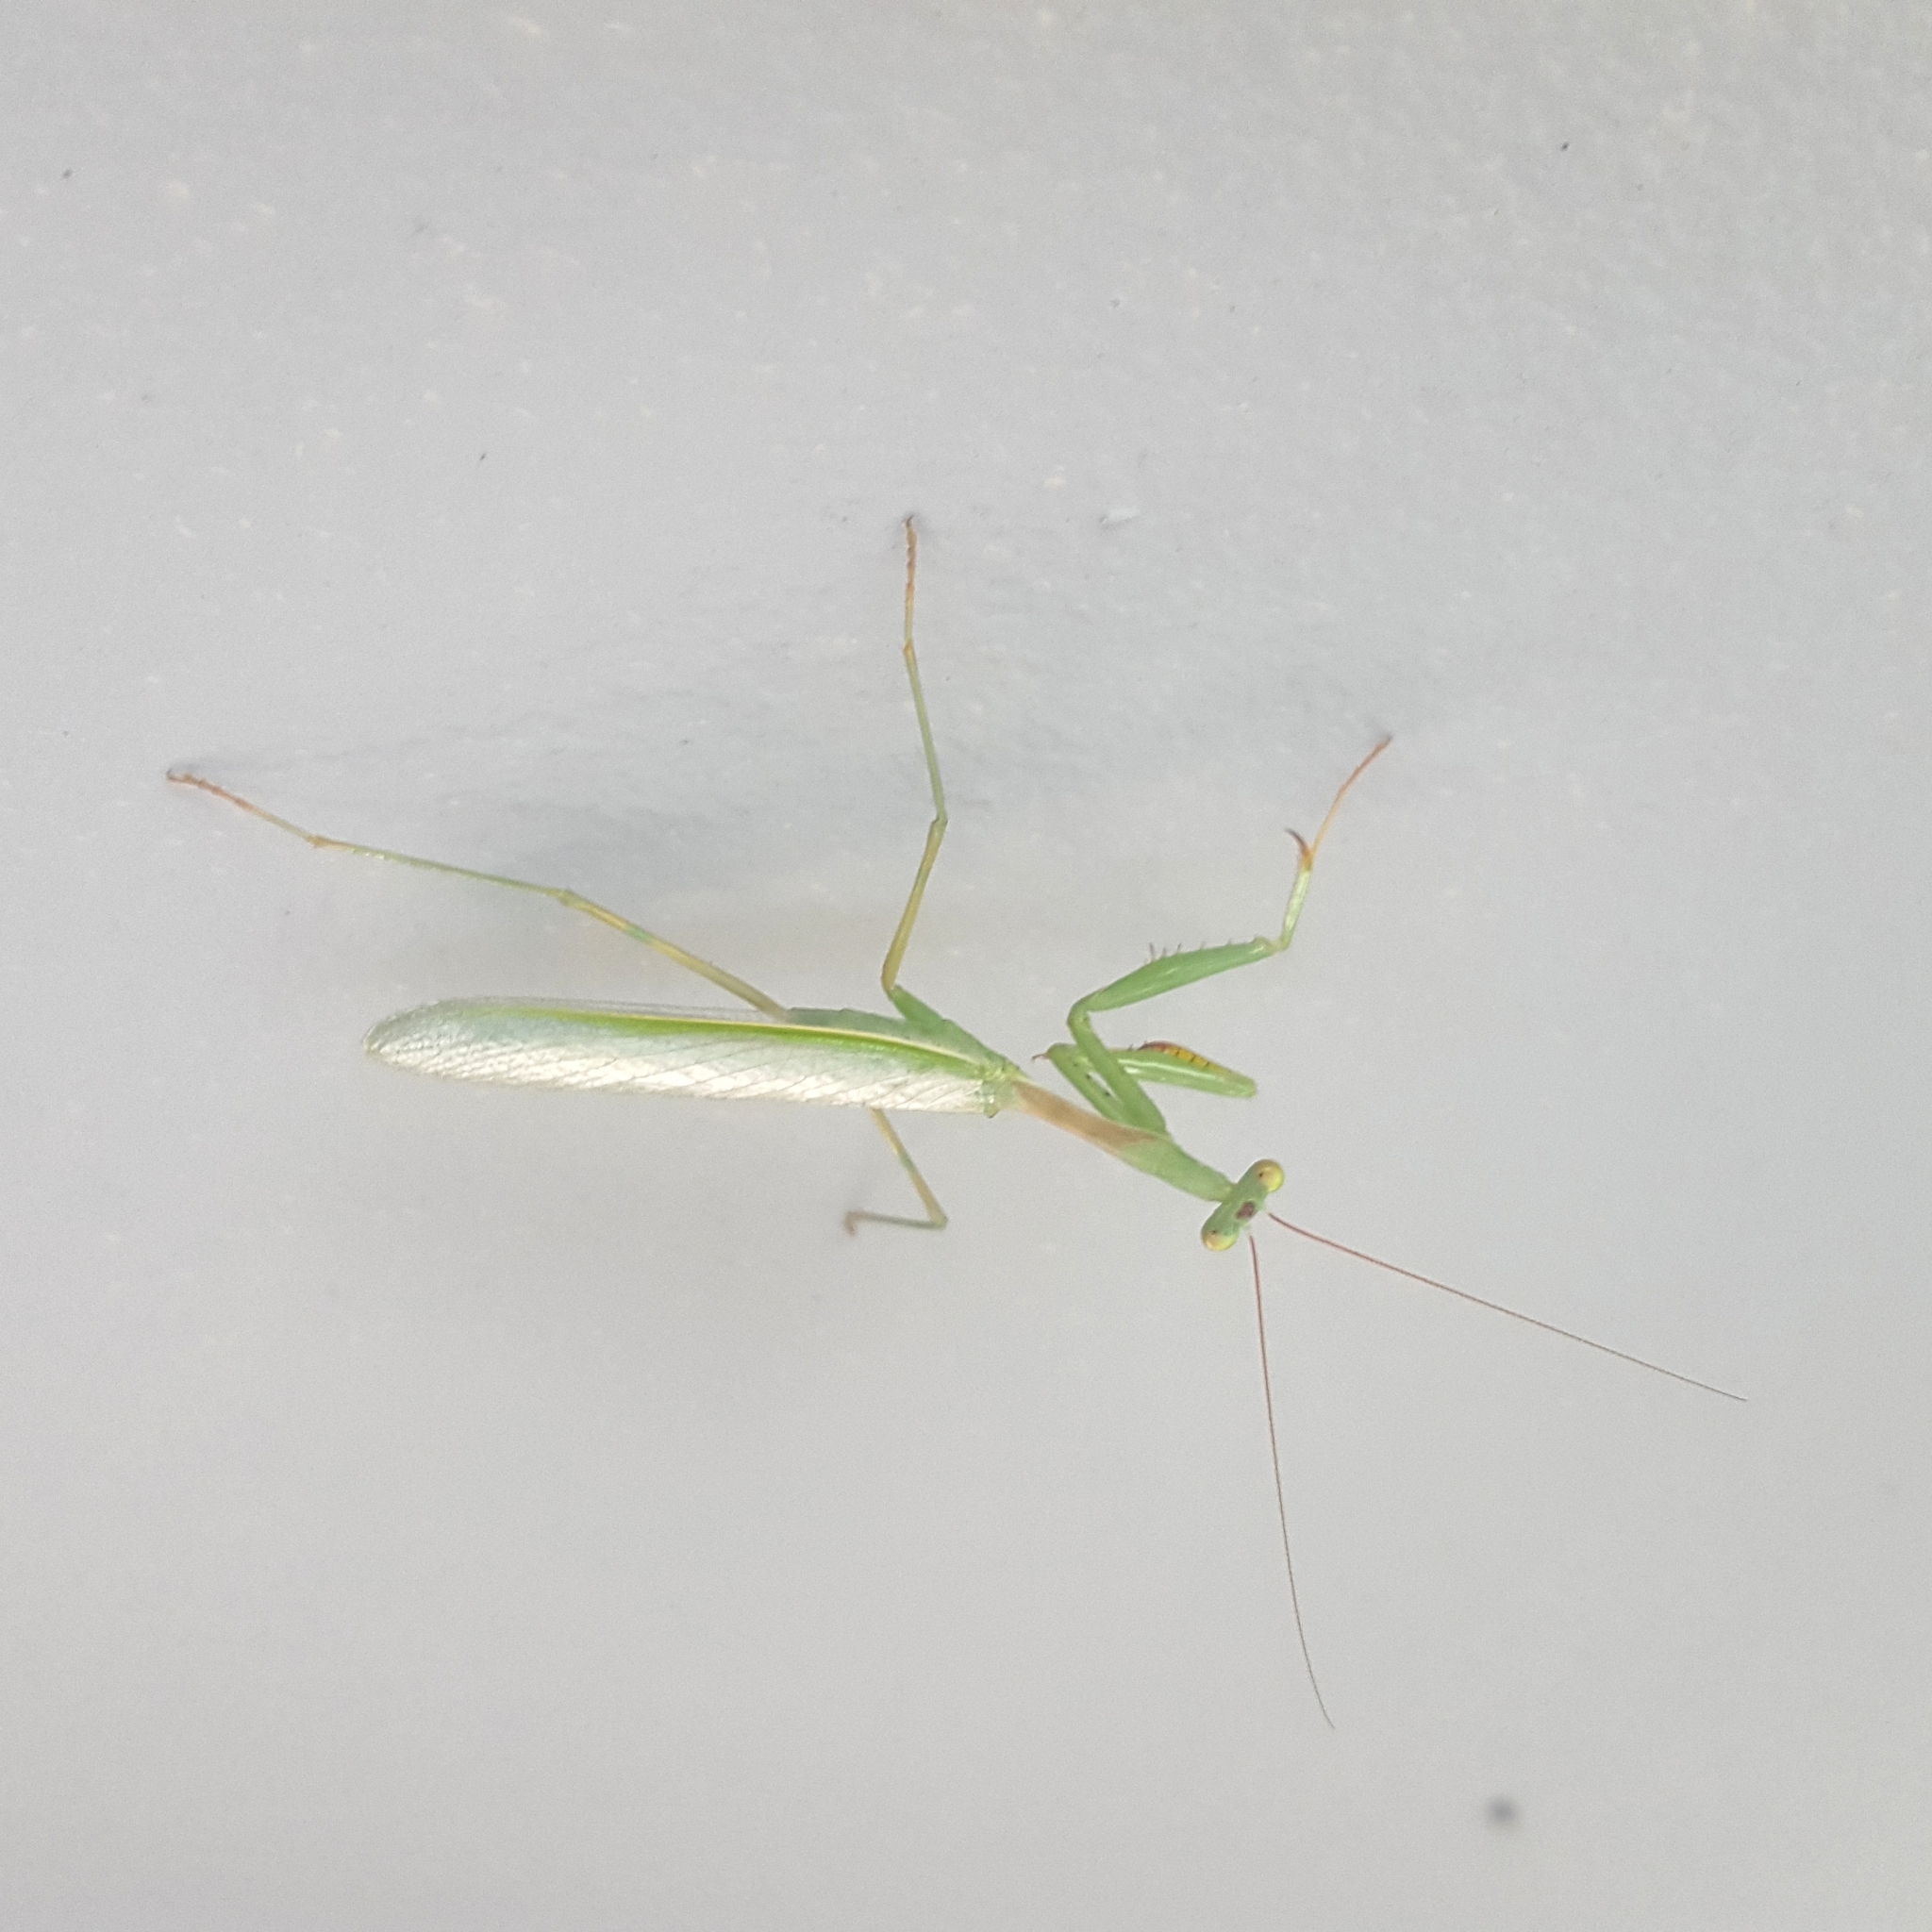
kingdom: Animalia
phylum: Arthropoda
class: Insecta
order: Mantodea
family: Miomantidae
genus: Miomantis
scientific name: Miomantis caffra
